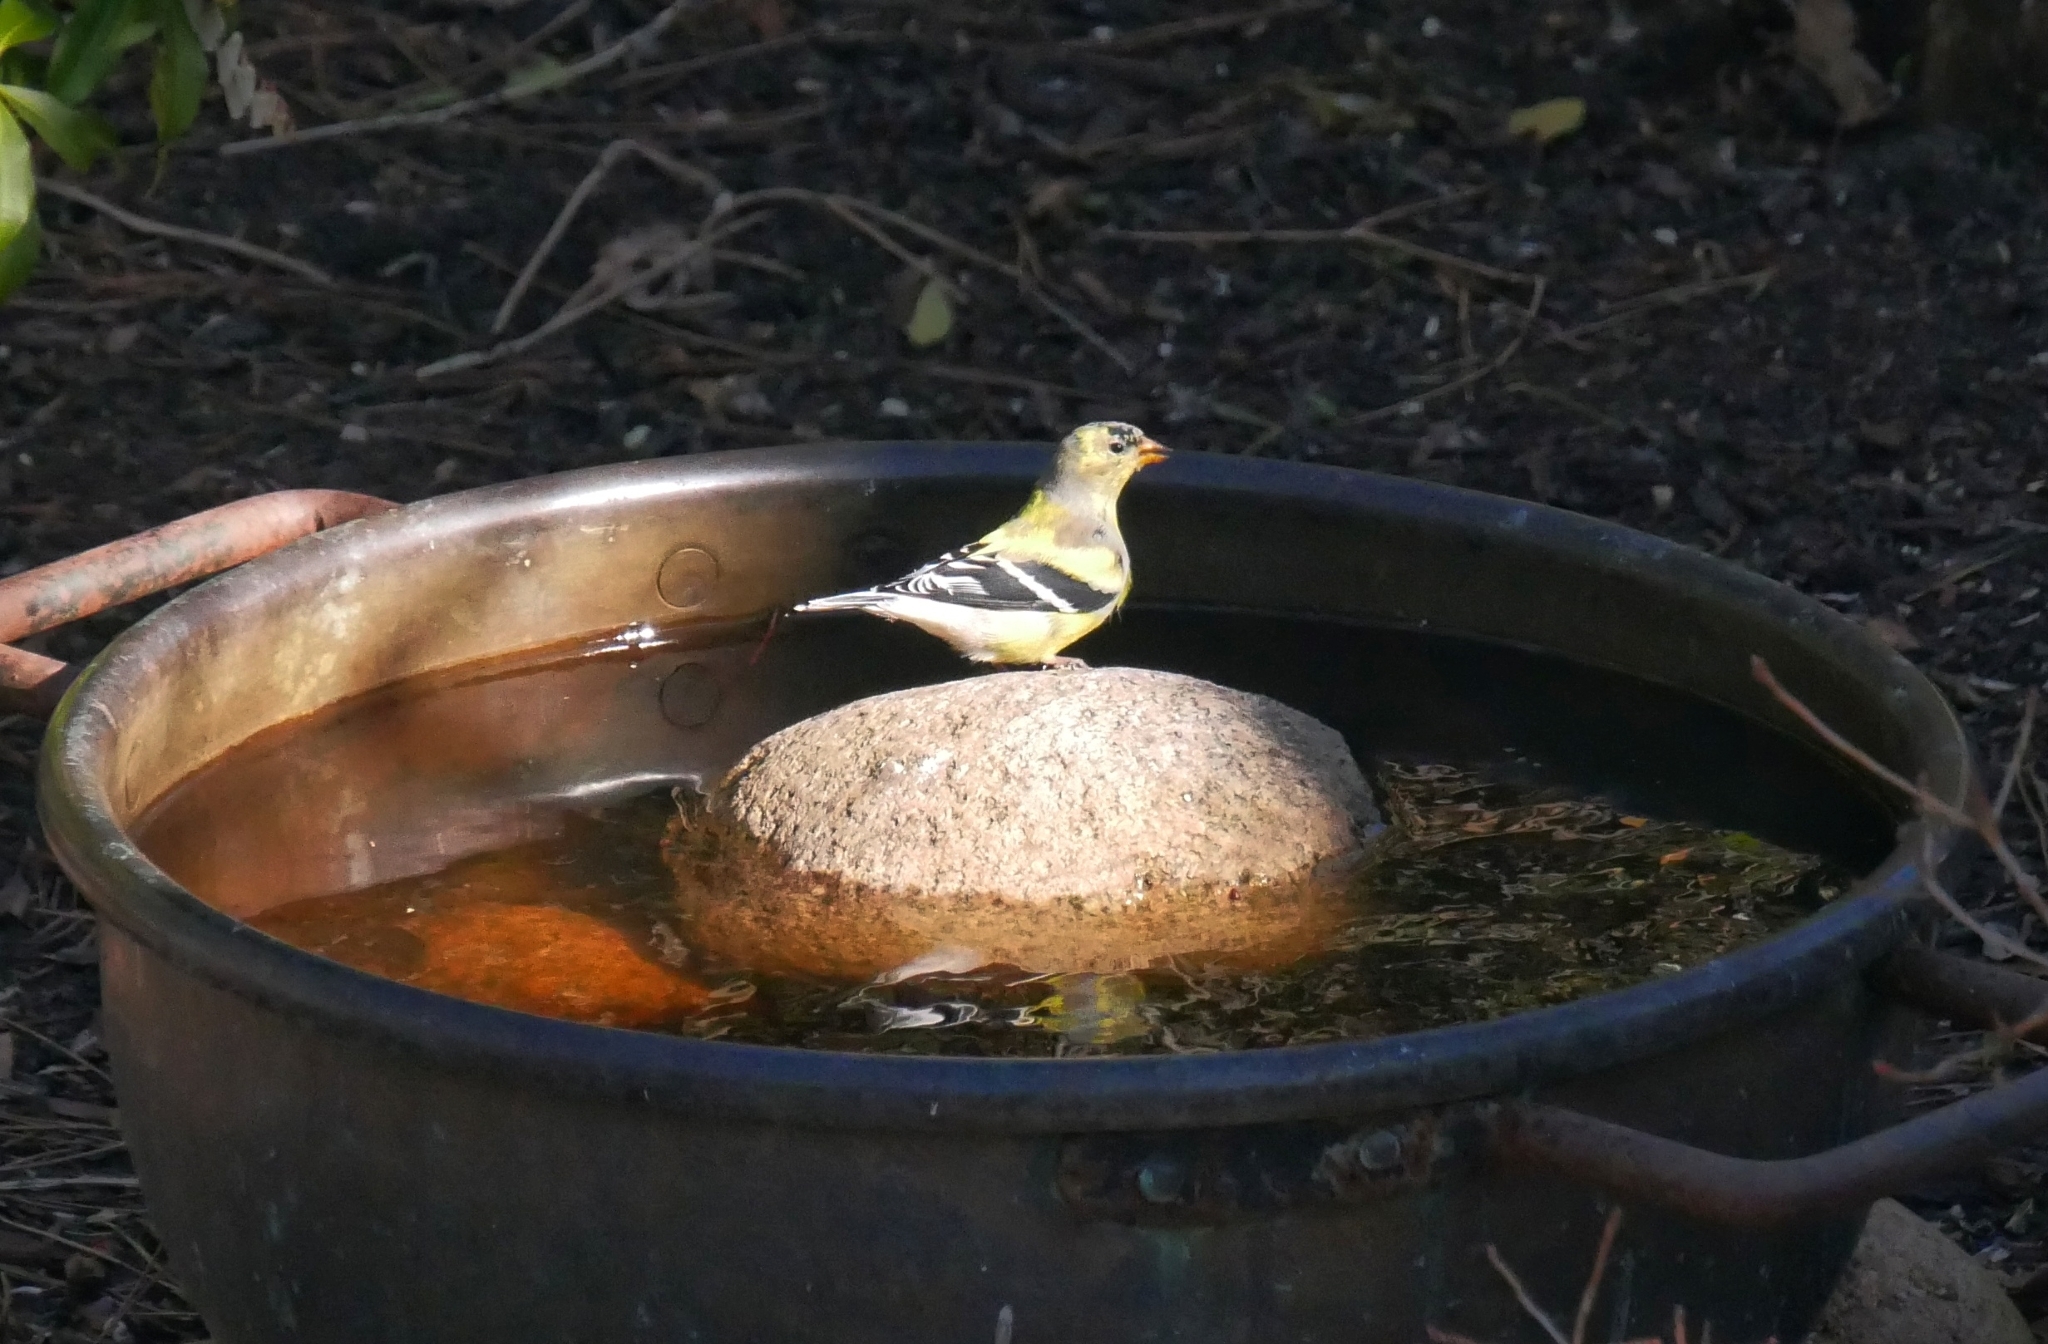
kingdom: Animalia
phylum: Chordata
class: Aves
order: Passeriformes
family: Fringillidae
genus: Spinus
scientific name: Spinus tristis
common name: American goldfinch
